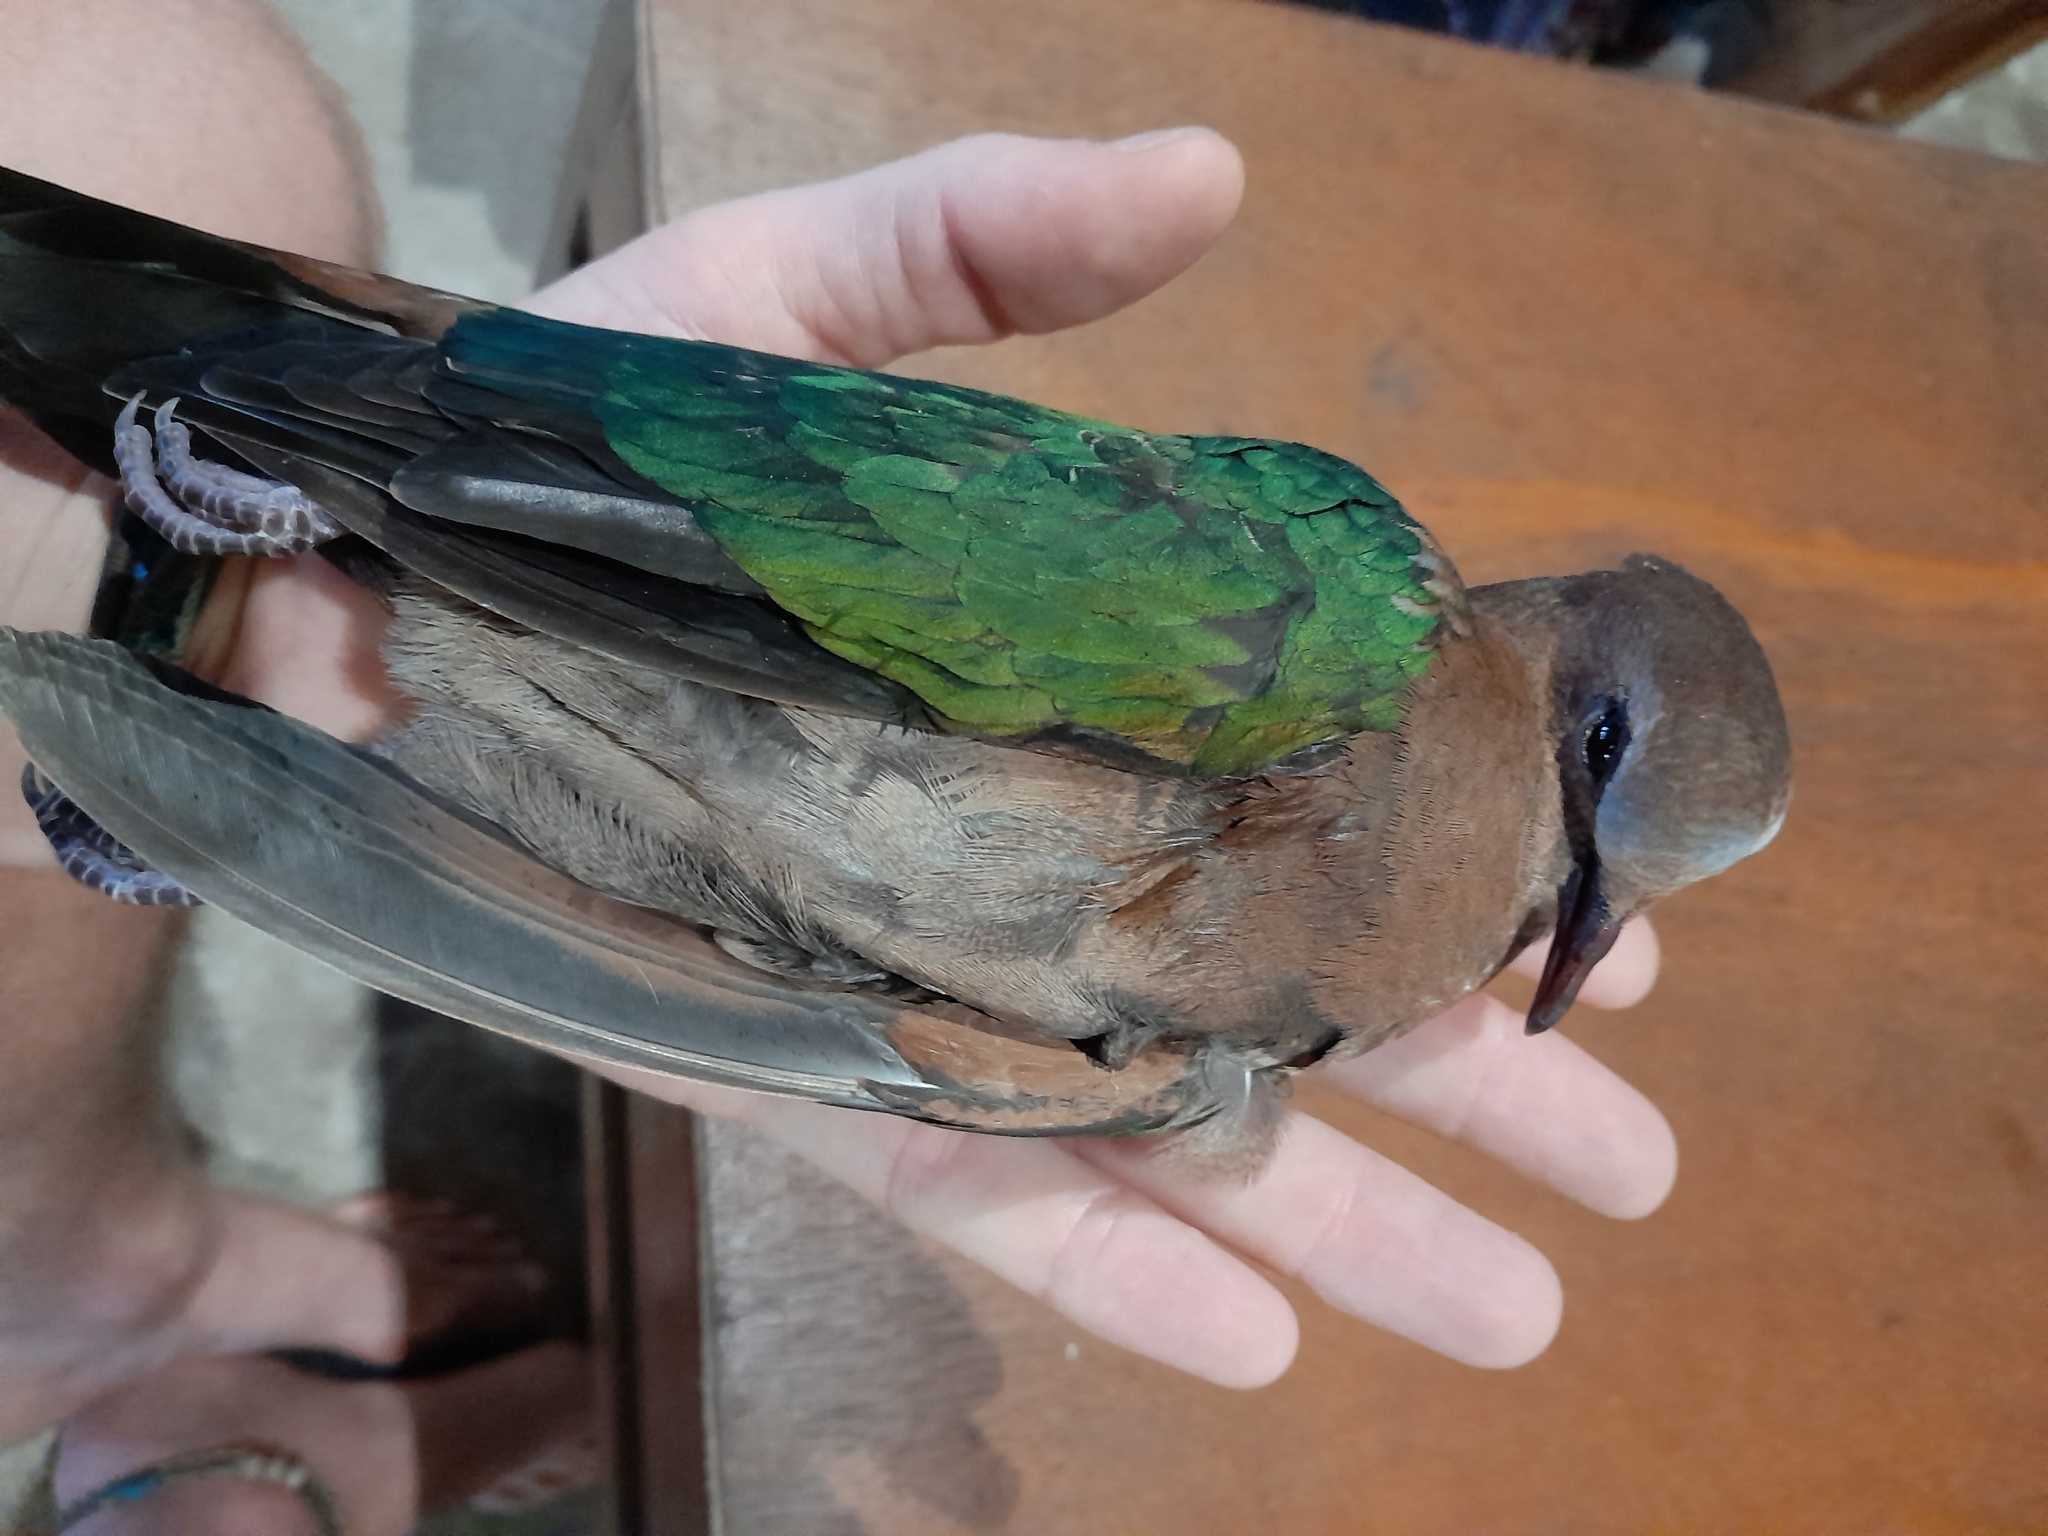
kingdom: Animalia
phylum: Chordata
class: Aves
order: Columbiformes
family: Columbidae
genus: Chalcophaps
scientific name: Chalcophaps indica
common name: Common emerald dove
